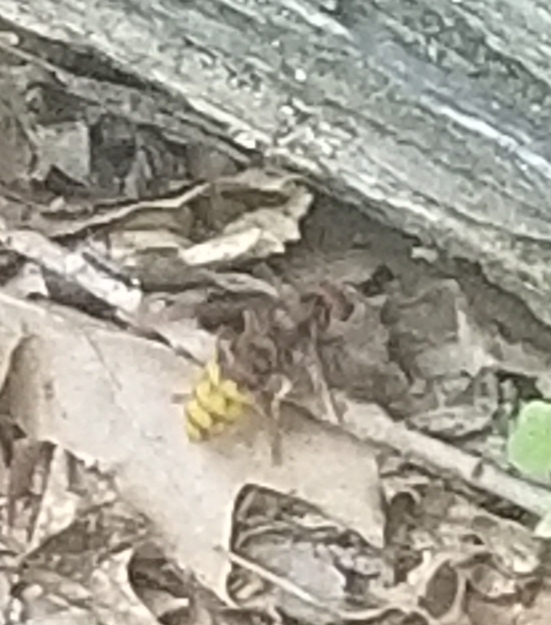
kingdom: Animalia
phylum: Arthropoda
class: Insecta
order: Hymenoptera
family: Vespidae
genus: Vespa
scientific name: Vespa crabro
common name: Hornet
